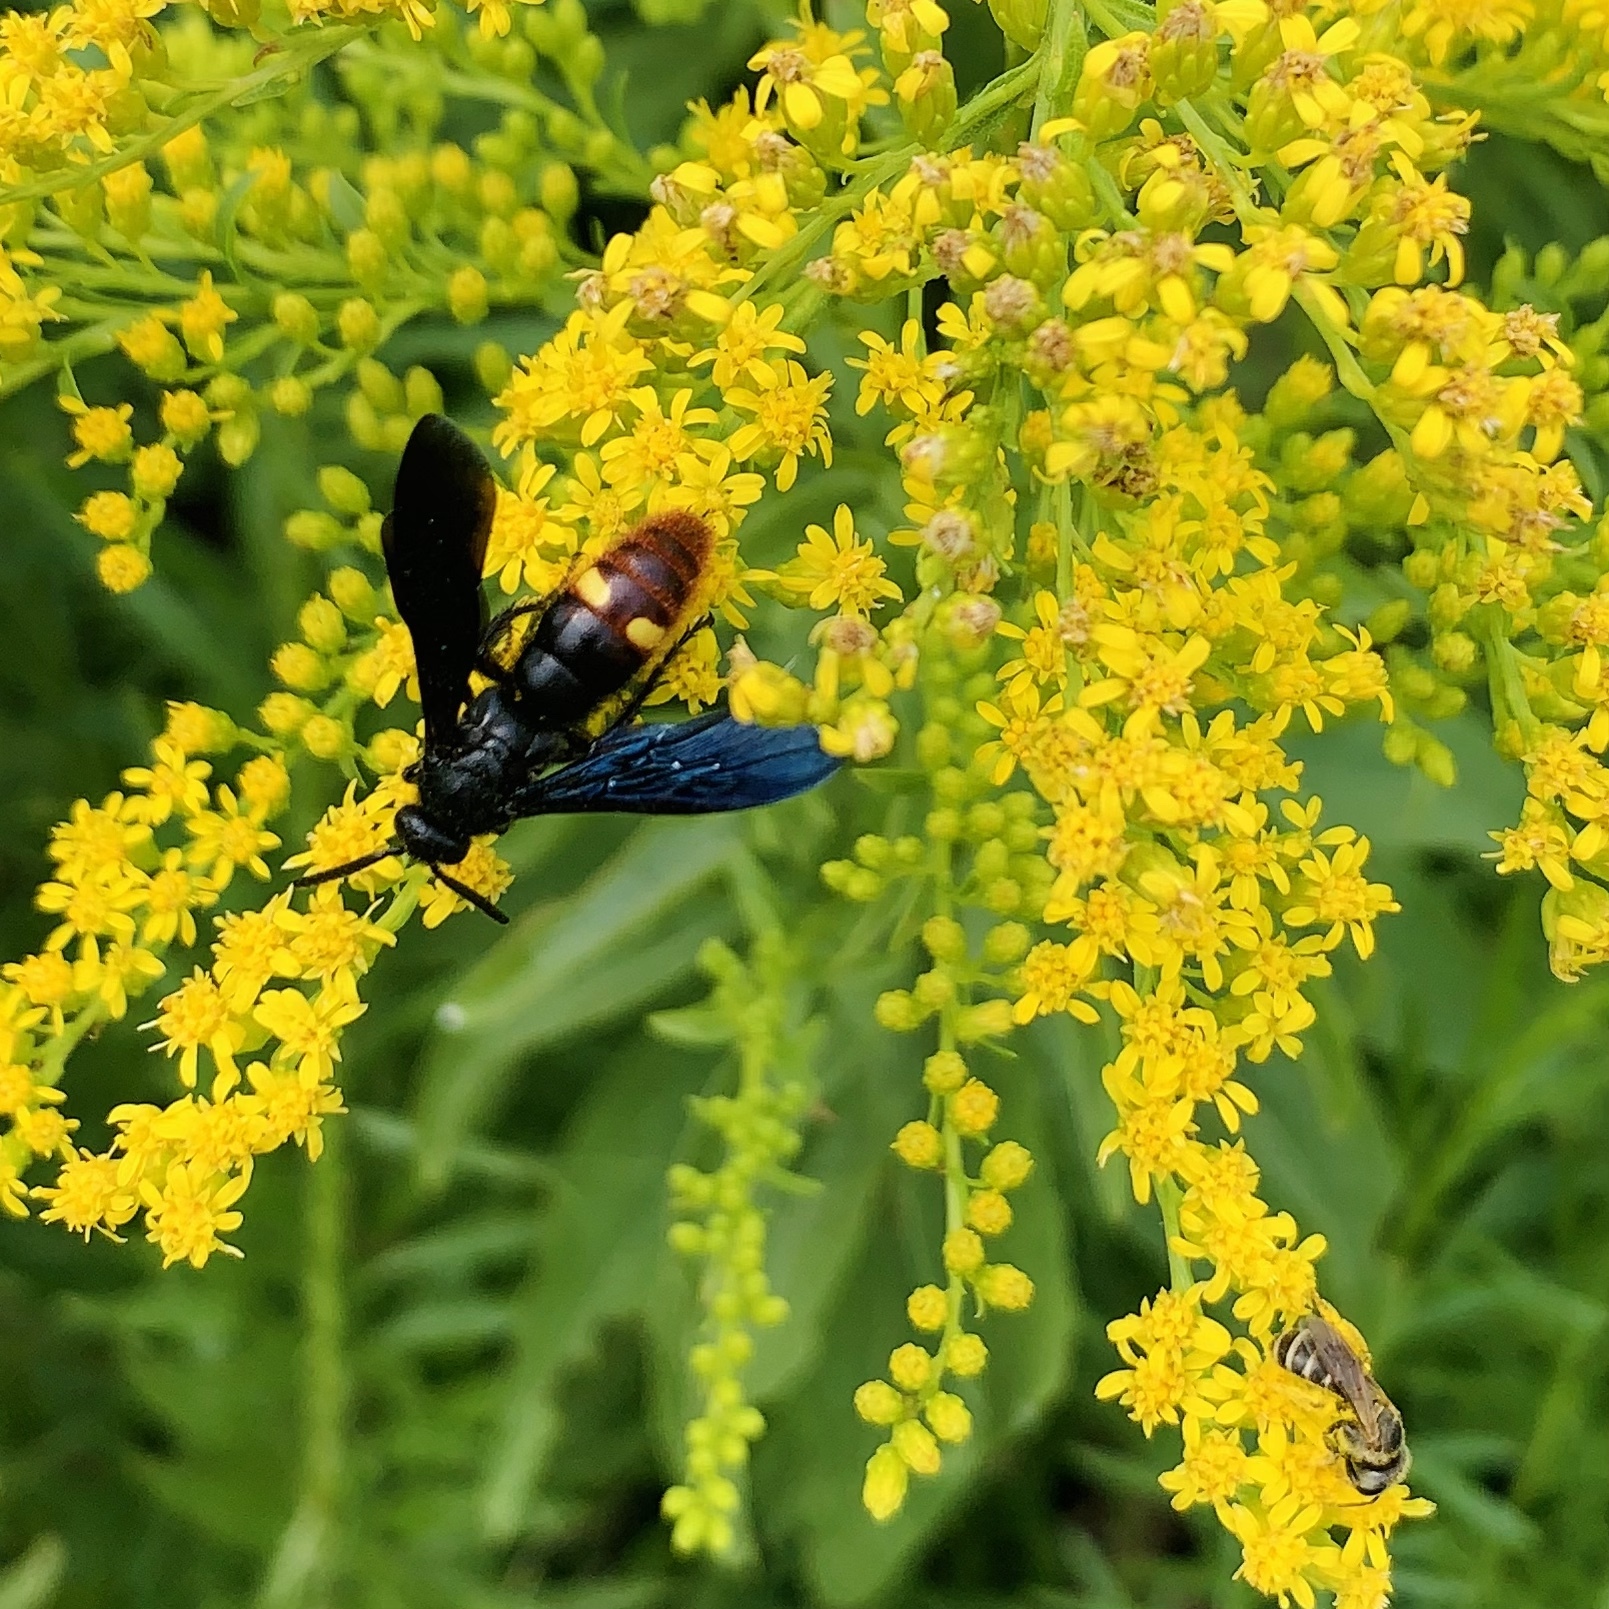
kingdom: Animalia
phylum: Arthropoda
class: Insecta
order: Hymenoptera
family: Scoliidae
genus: Scolia
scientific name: Scolia dubia
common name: Blue-winged scoliid wasp
